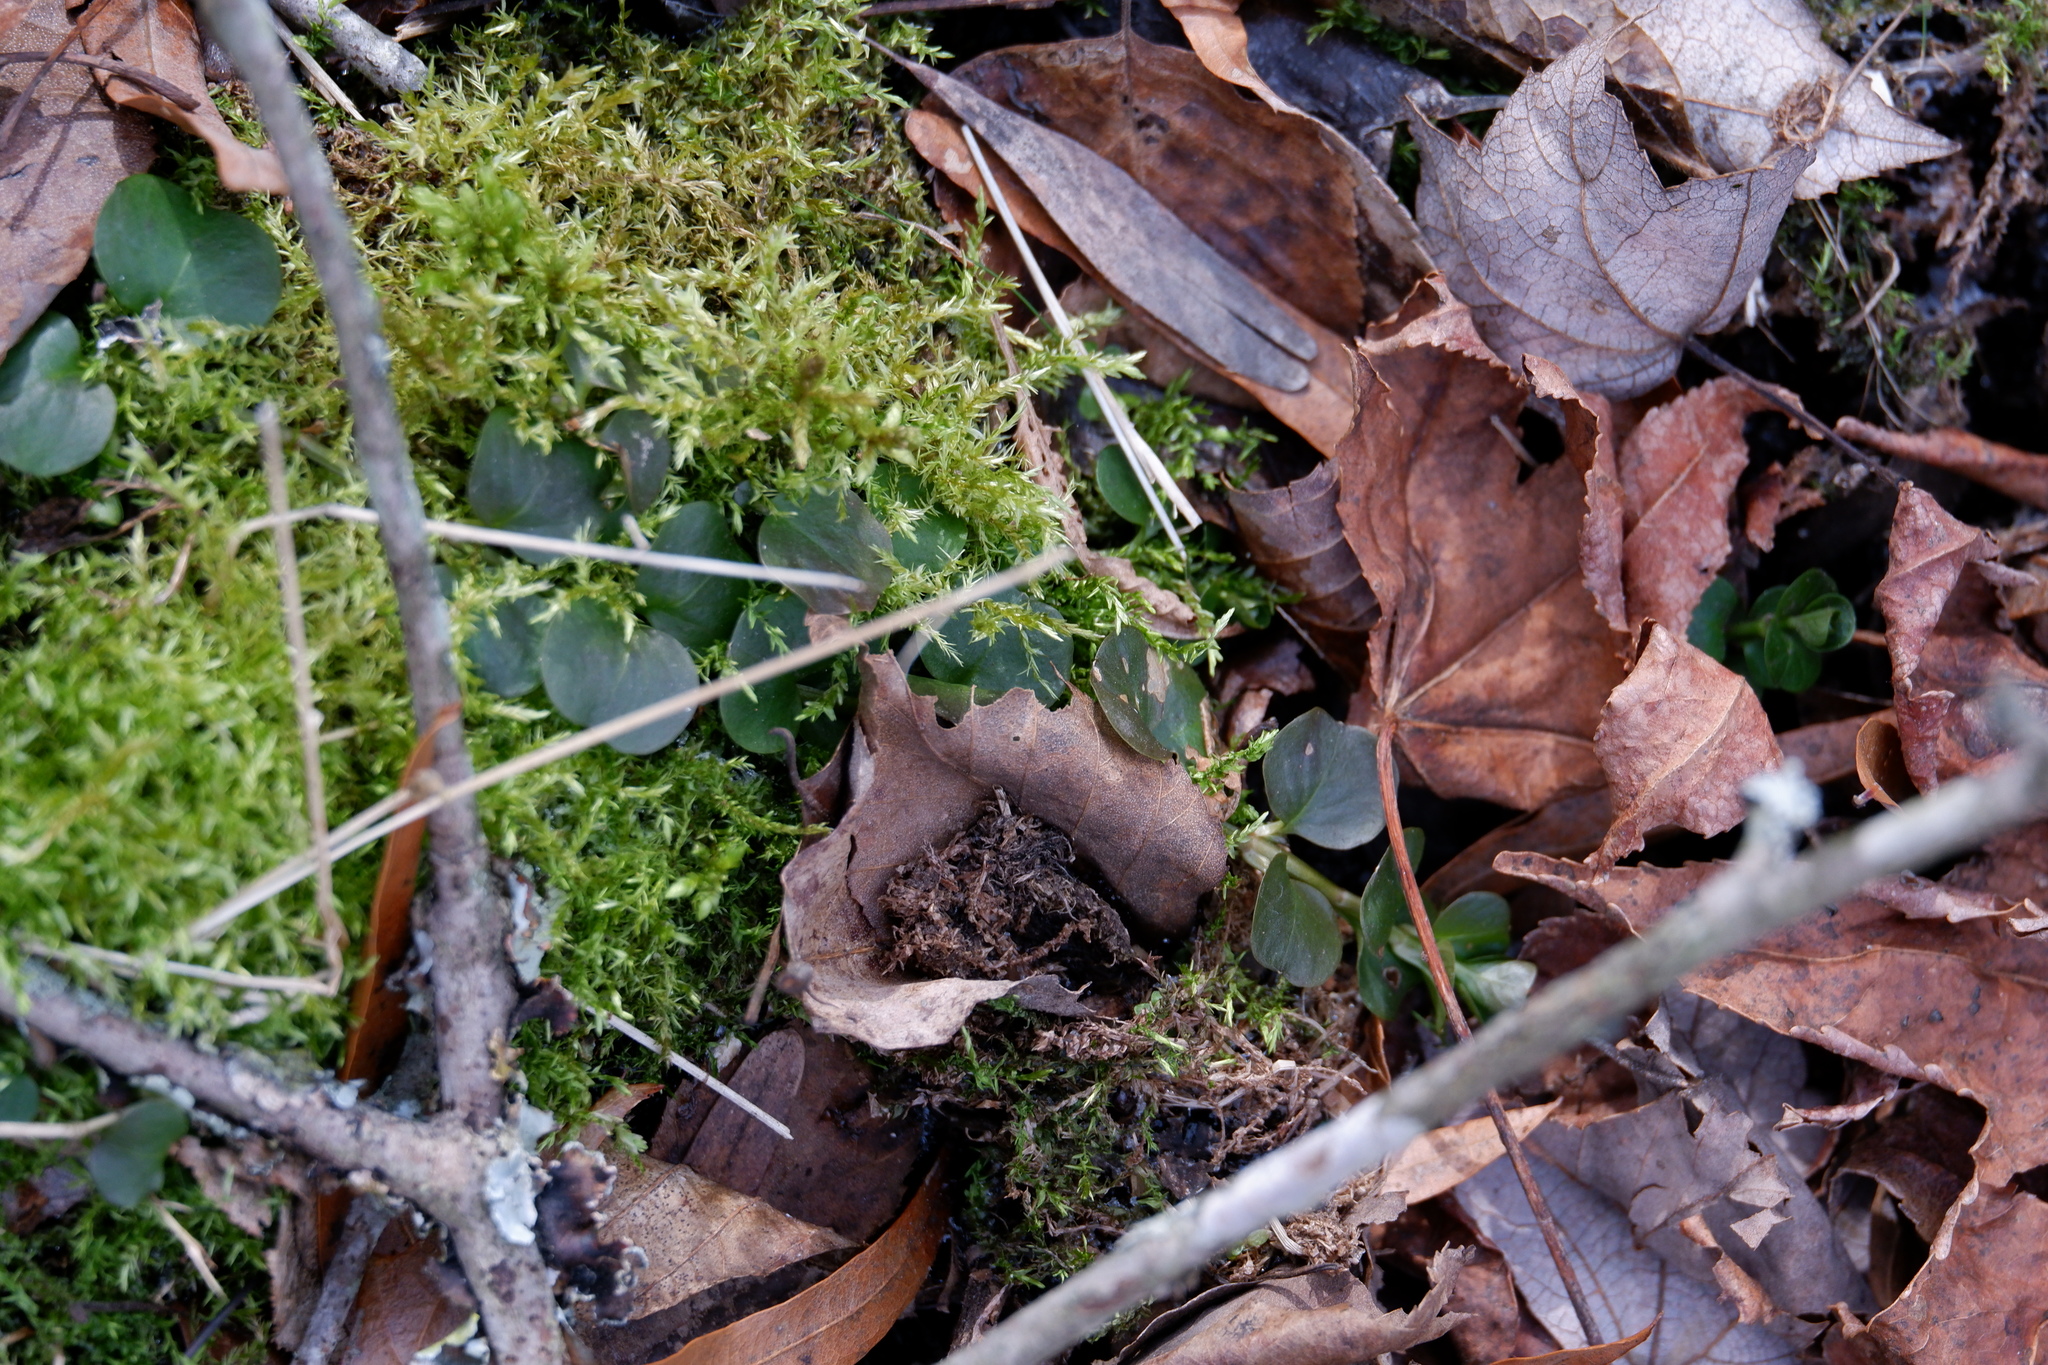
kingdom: Plantae
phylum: Tracheophyta
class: Magnoliopsida
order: Ericales
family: Primulaceae
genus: Lysimachia
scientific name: Lysimachia nummularia
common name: Moneywort
